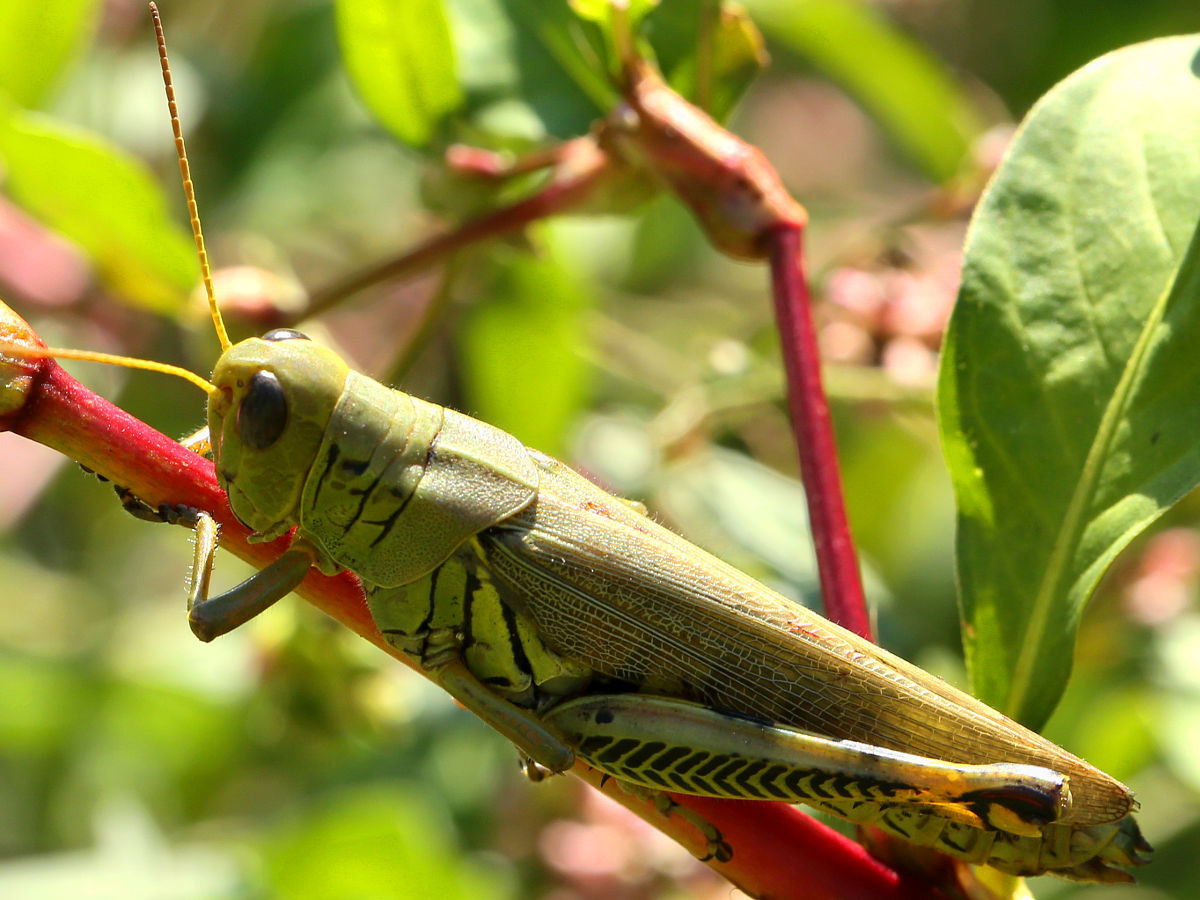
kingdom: Animalia
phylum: Arthropoda
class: Insecta
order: Orthoptera
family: Acrididae
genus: Melanoplus
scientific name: Melanoplus differentialis
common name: Differential grasshopper
